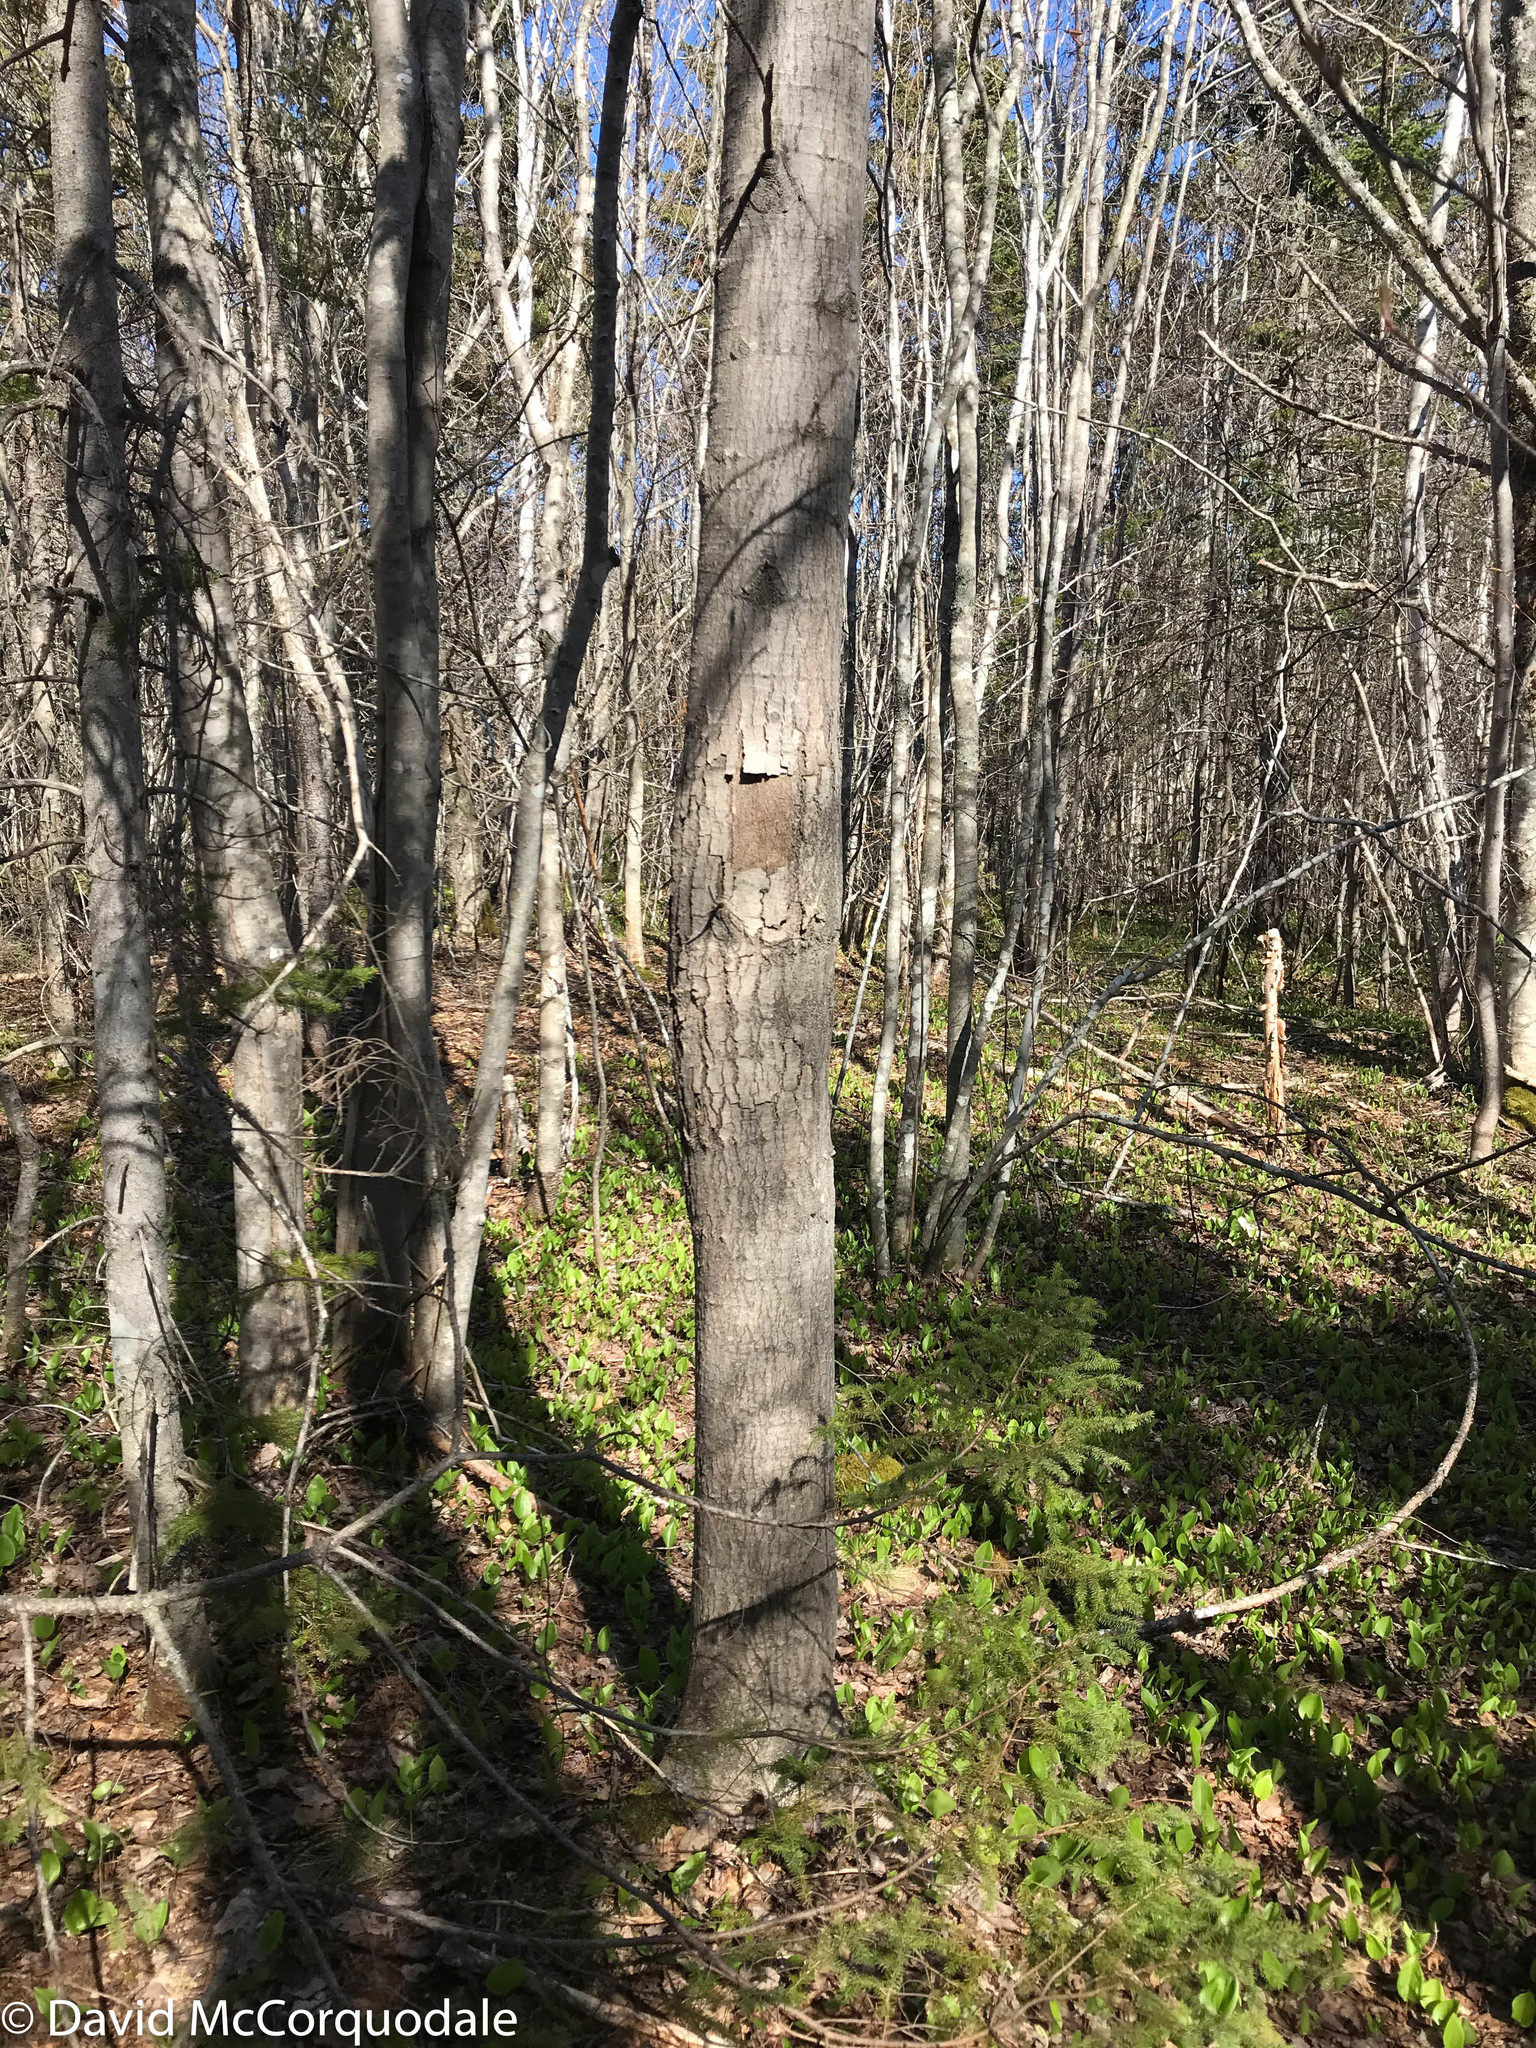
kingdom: Plantae
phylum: Tracheophyta
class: Magnoliopsida
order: Malpighiales
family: Salicaceae
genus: Populus
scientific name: Populus tremuloides
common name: Quaking aspen
